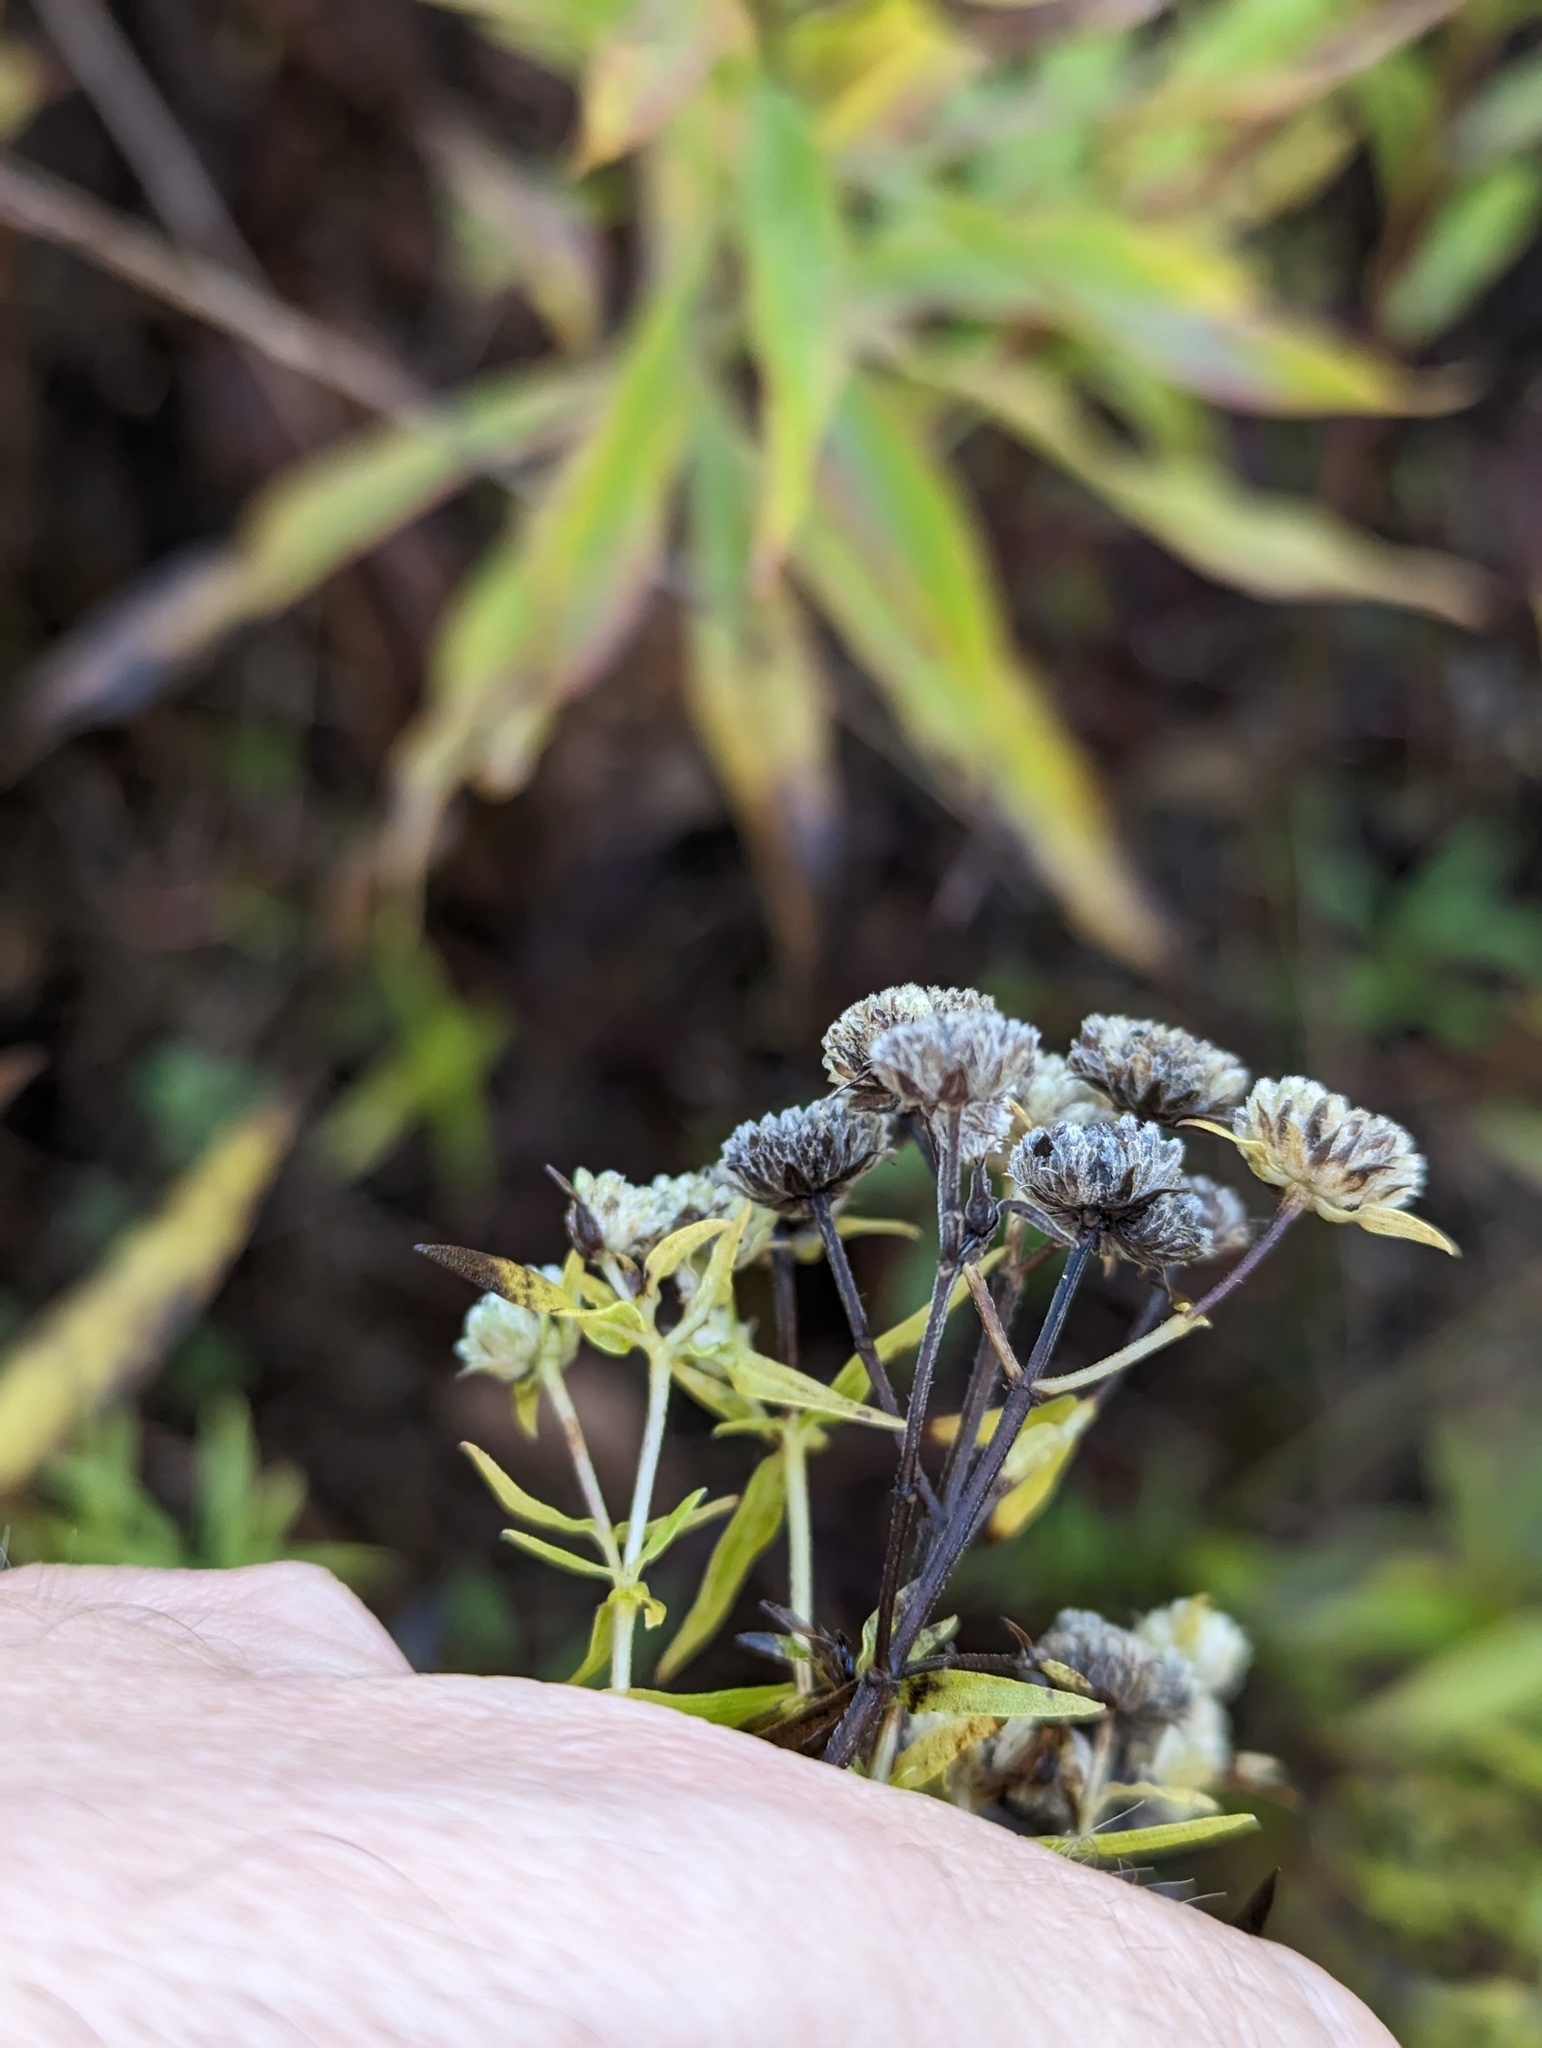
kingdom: Plantae
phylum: Tracheophyta
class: Magnoliopsida
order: Lamiales
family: Lamiaceae
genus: Pycnanthemum
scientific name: Pycnanthemum virginianum
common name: Virginia mountain-mint
